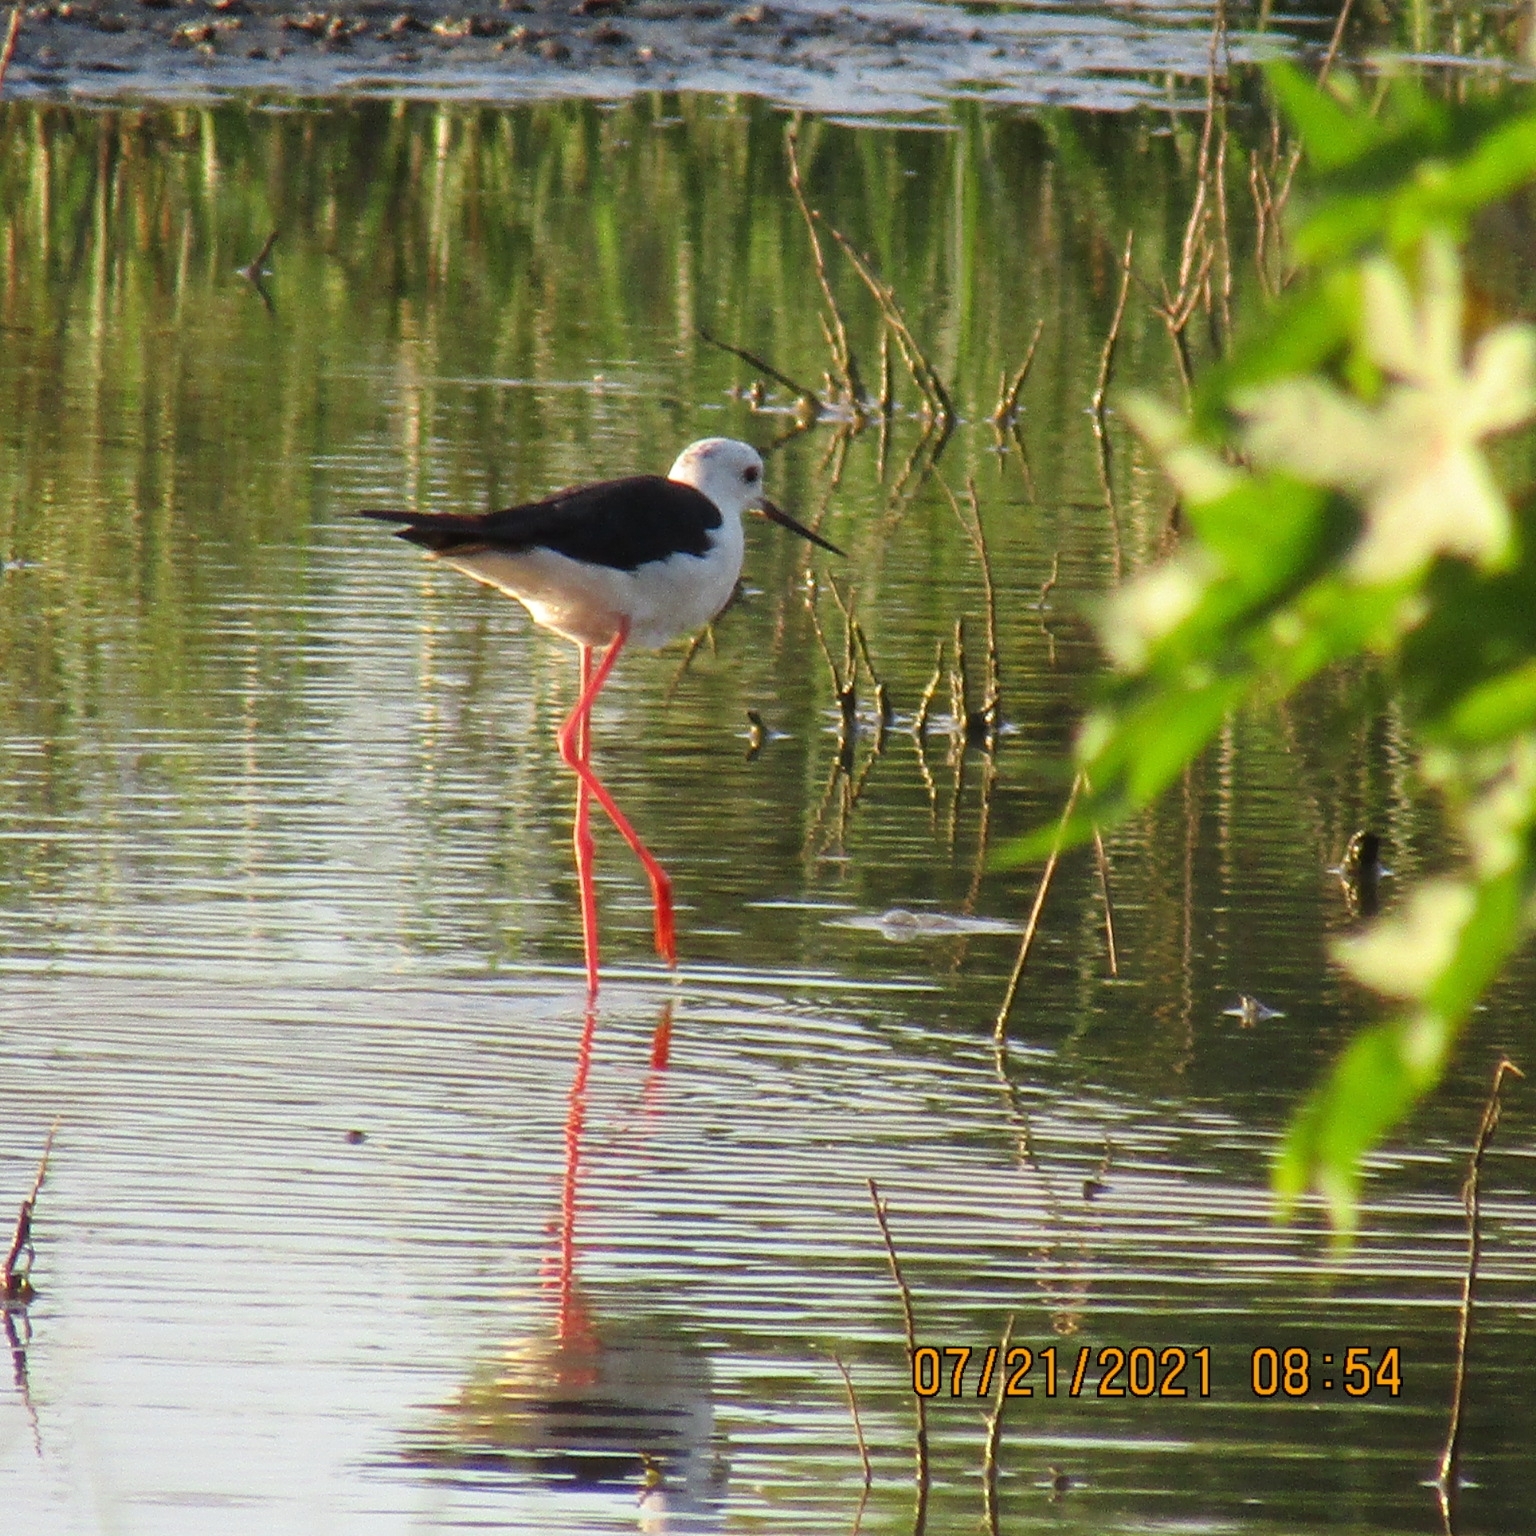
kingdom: Animalia
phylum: Chordata
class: Aves
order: Charadriiformes
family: Recurvirostridae
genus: Himantopus
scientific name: Himantopus himantopus
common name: Black-winged stilt
